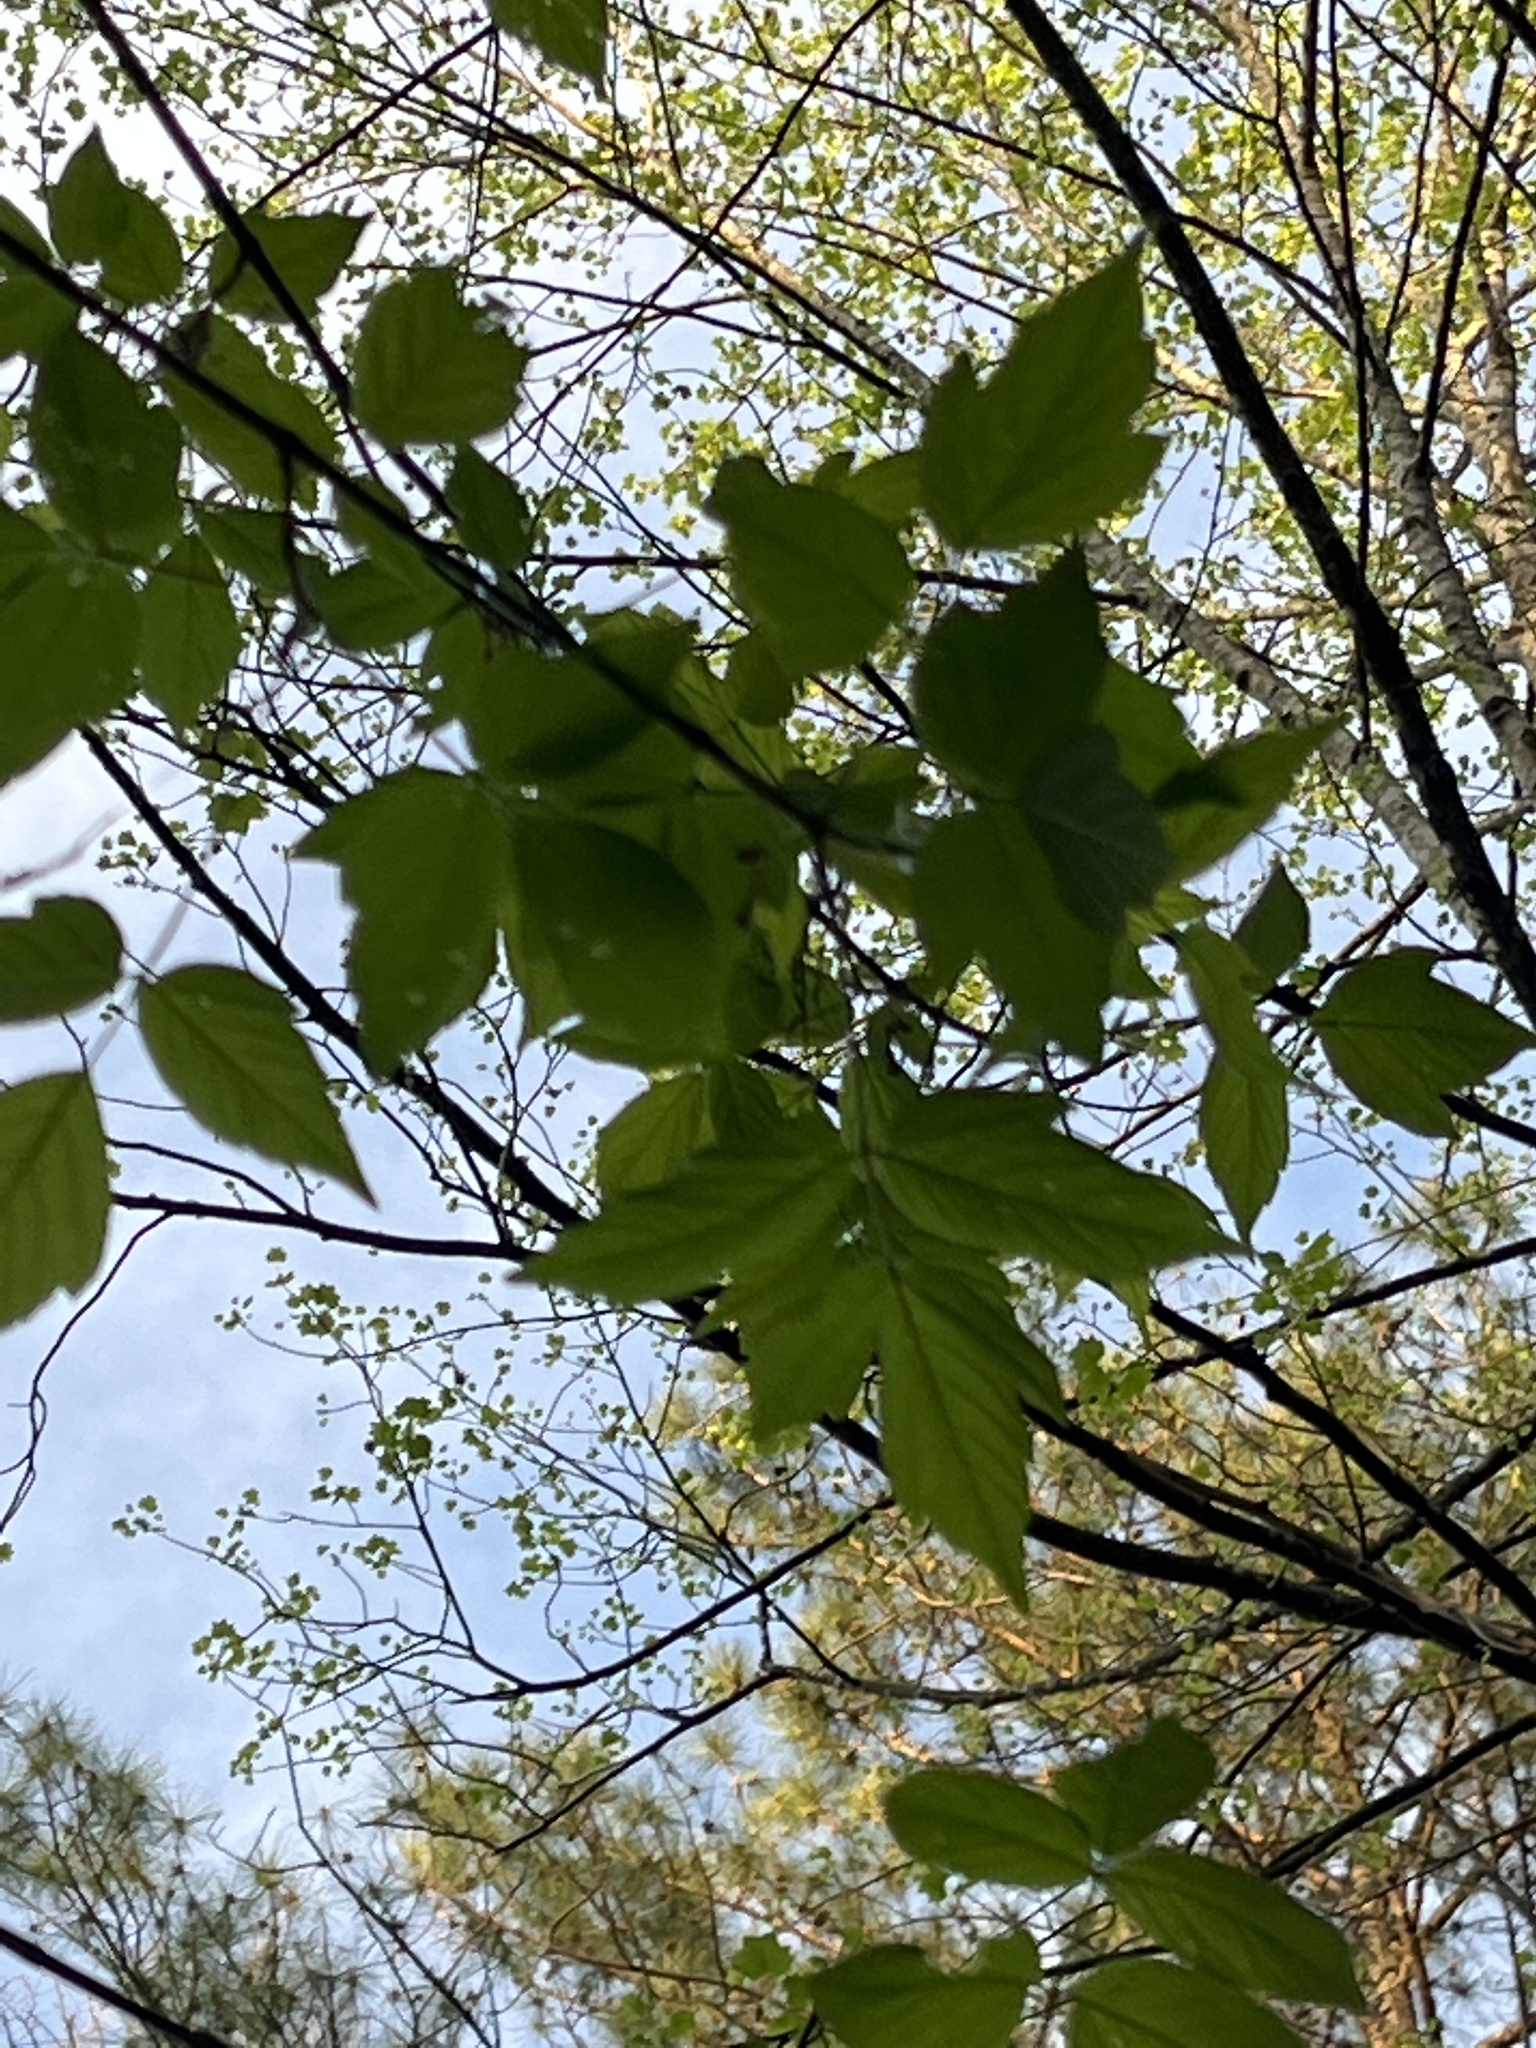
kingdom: Plantae
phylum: Tracheophyta
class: Magnoliopsida
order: Sapindales
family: Sapindaceae
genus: Acer
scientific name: Acer negundo
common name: Ashleaf maple
